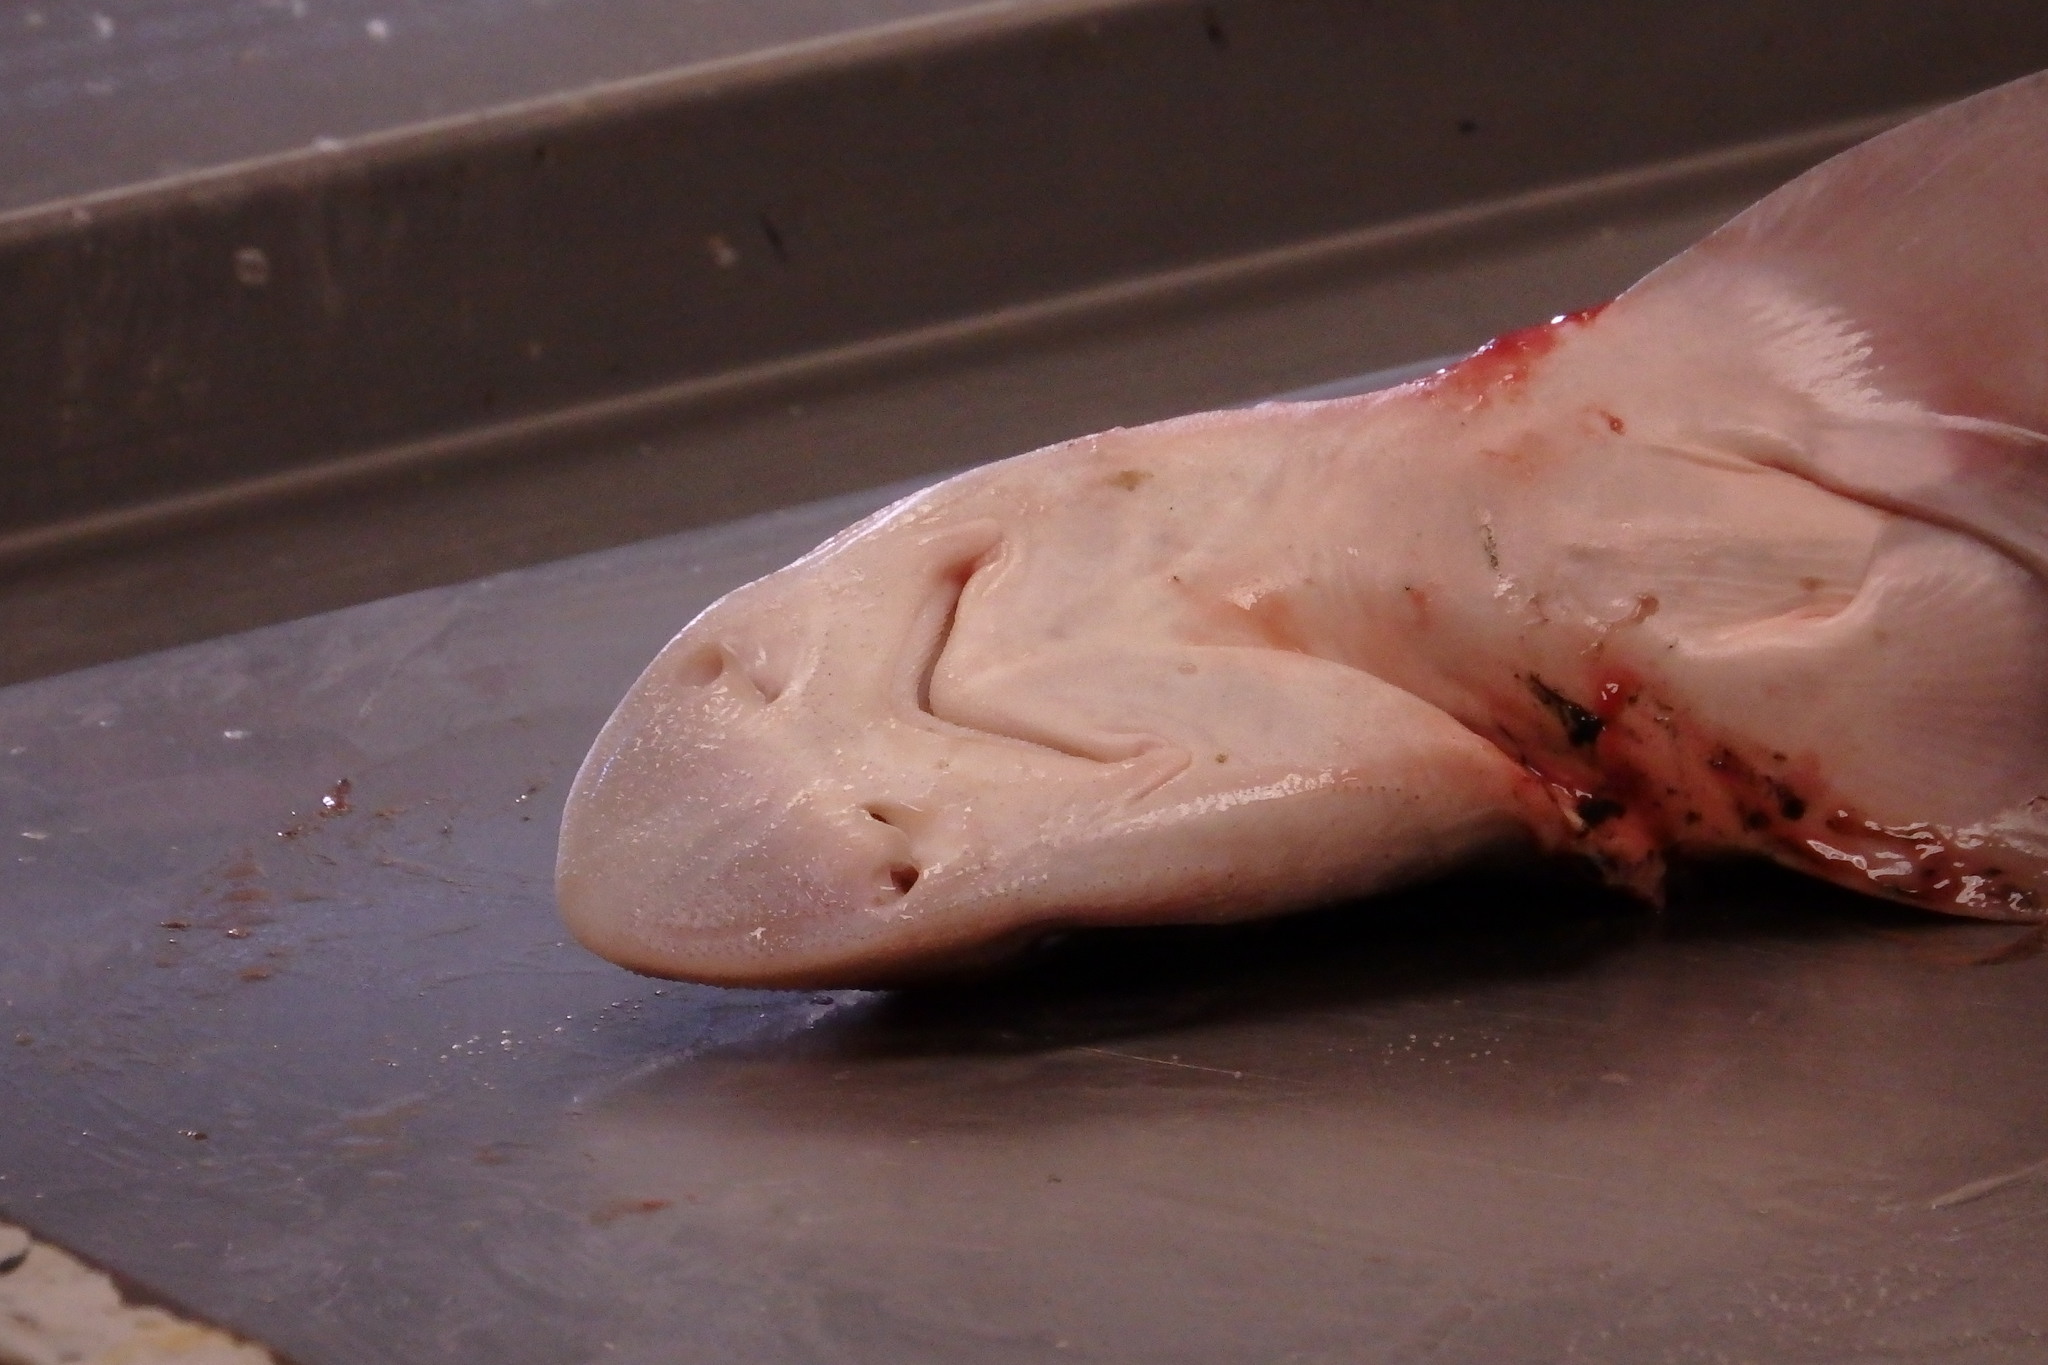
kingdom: Animalia
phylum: Chordata
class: Elasmobranchii
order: Carcharhiniformes
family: Triakidae
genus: Mustelus
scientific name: Mustelus mustelus
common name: Smooth-hound
